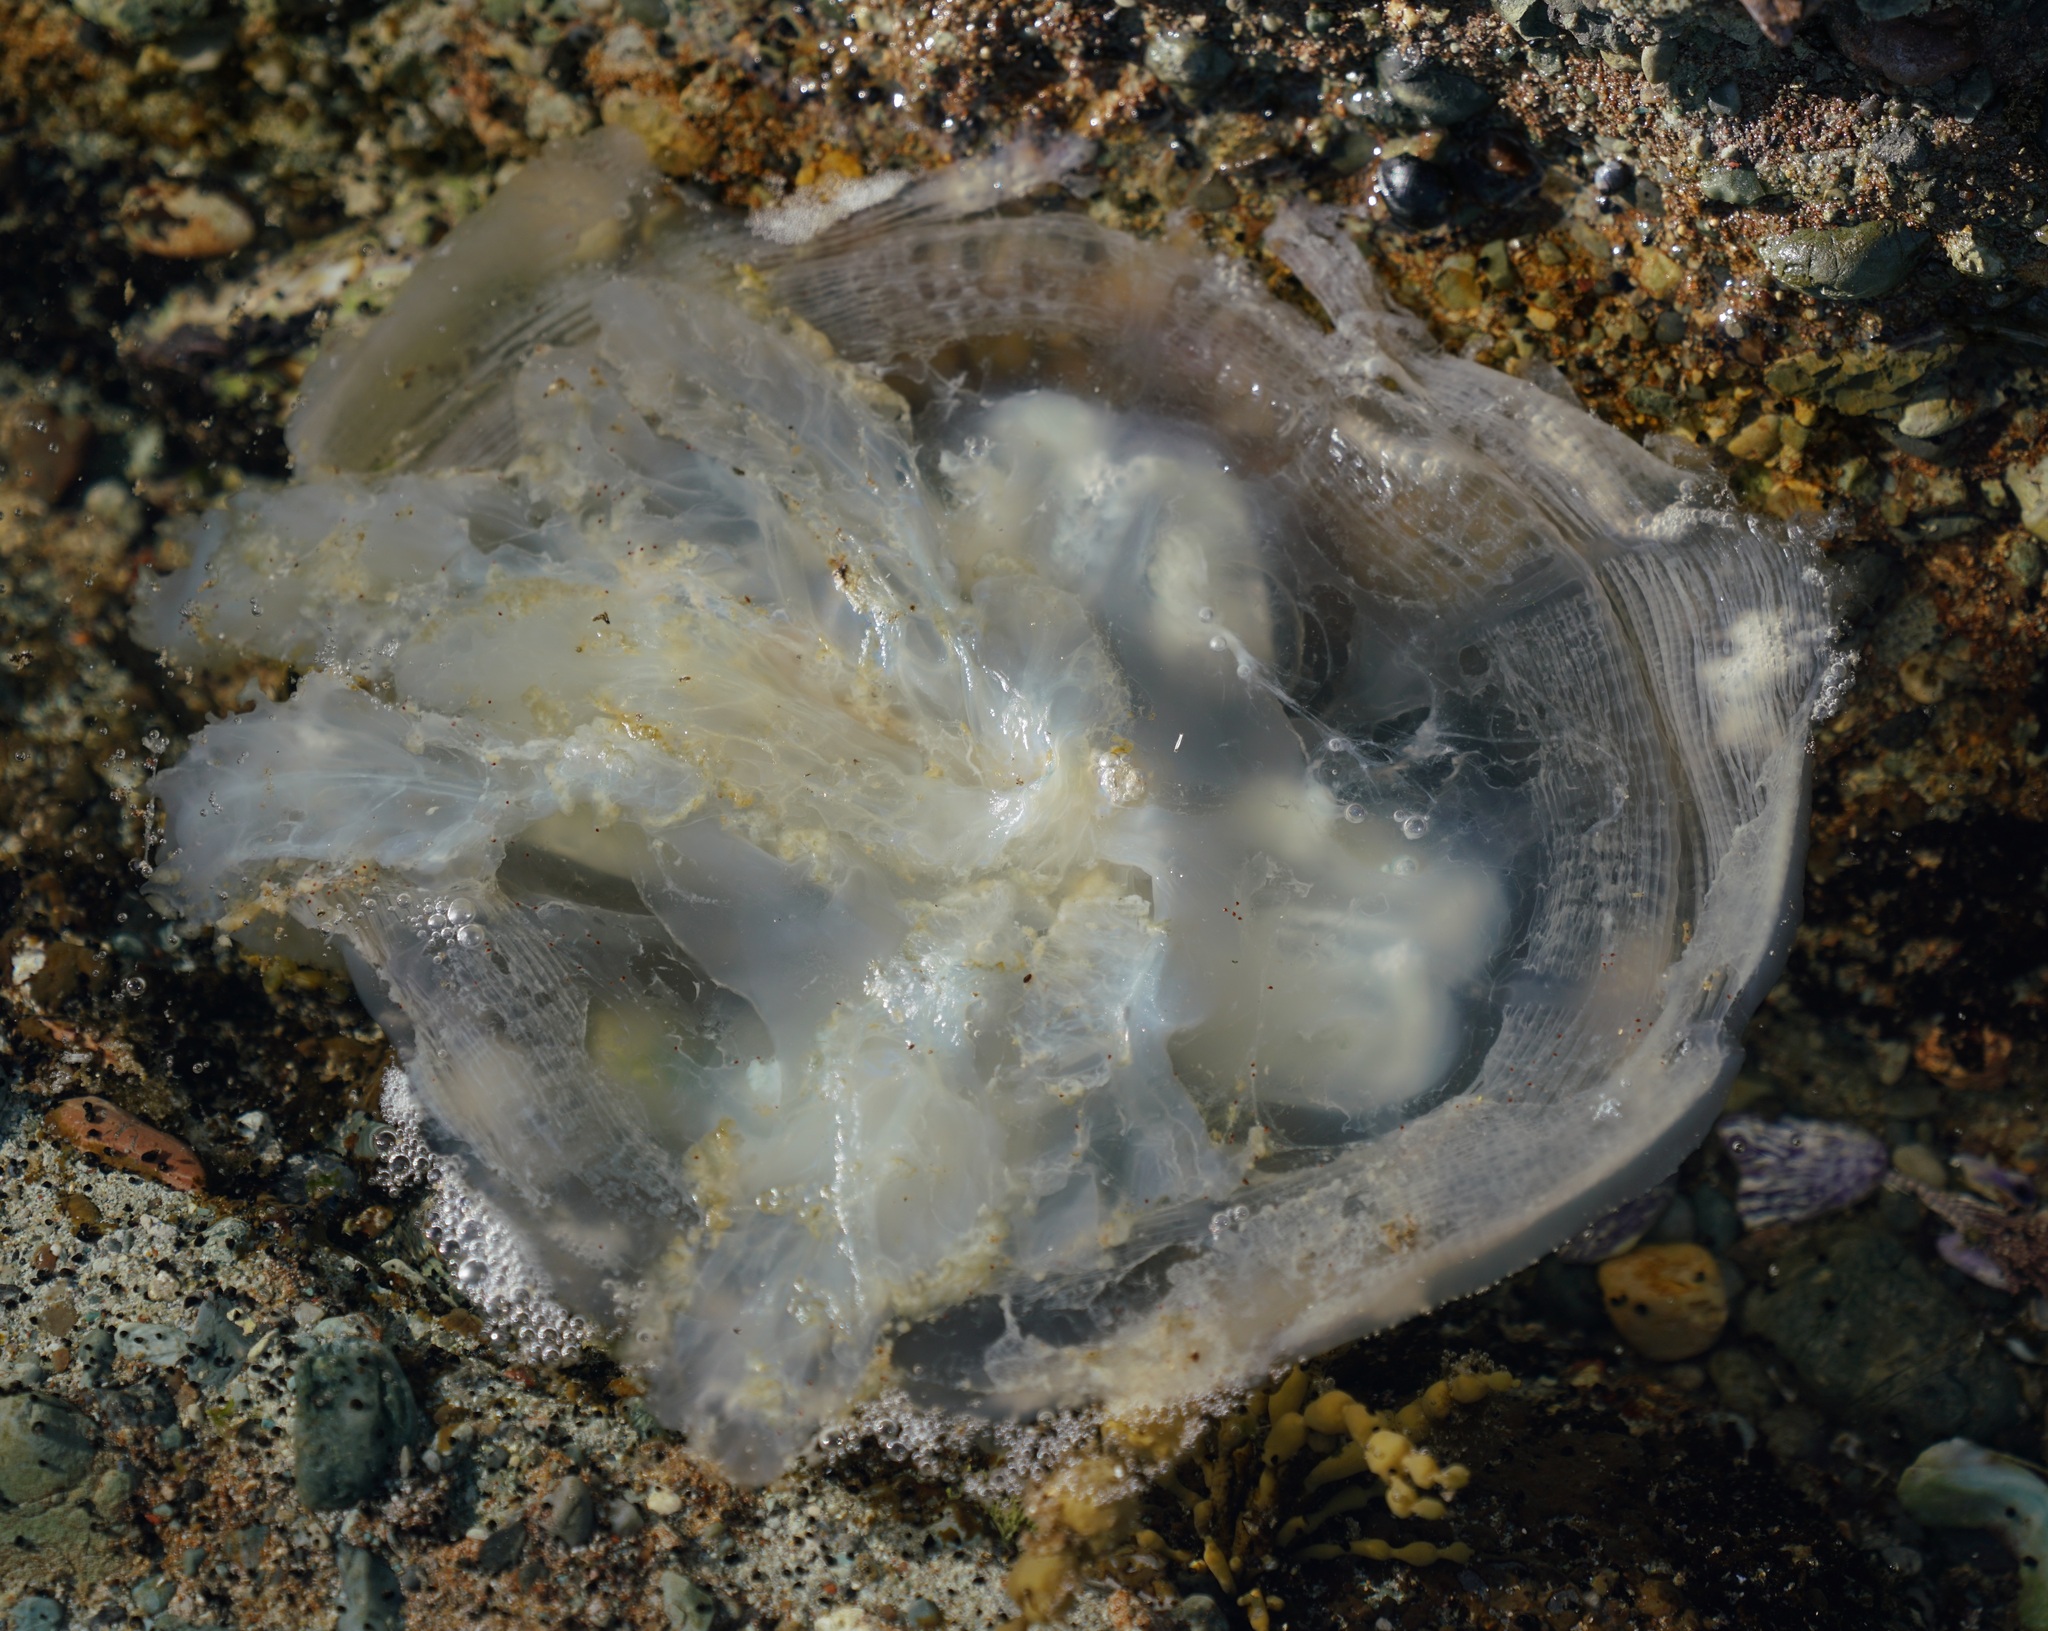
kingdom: Animalia
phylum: Cnidaria
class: Scyphozoa
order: Rhizostomeae
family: Catostylidae
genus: Catostylus
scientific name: Catostylus mosaicus
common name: Blue blubber
